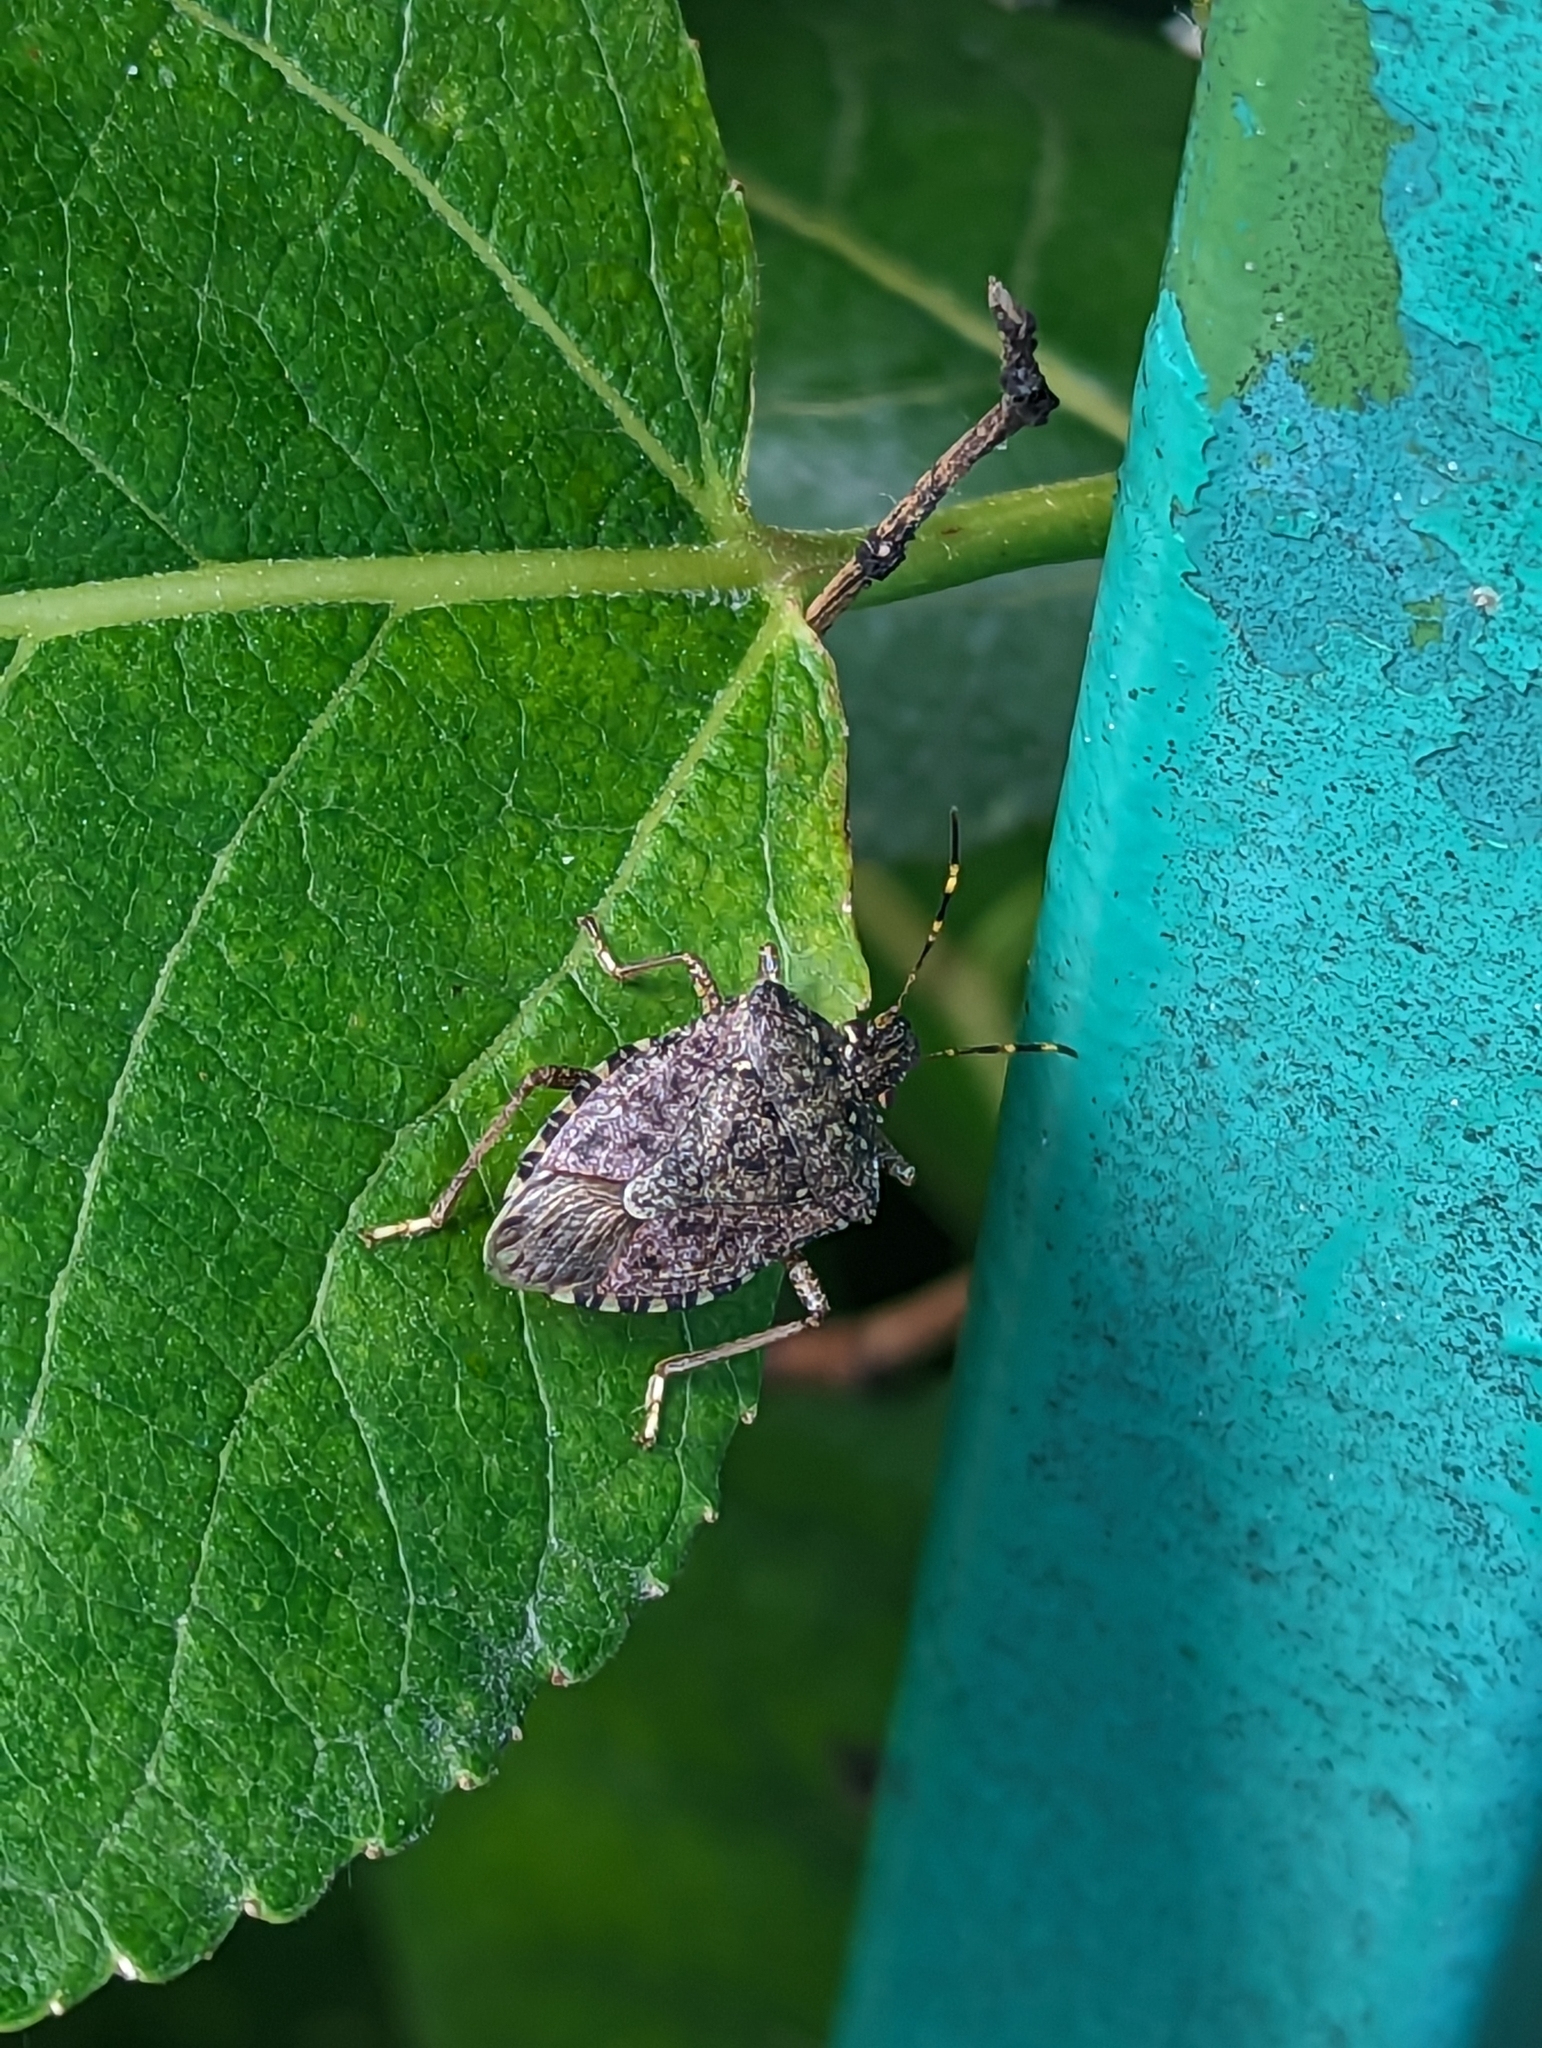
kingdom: Animalia
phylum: Arthropoda
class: Insecta
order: Hemiptera
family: Pentatomidae
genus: Halyomorpha
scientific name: Halyomorpha halys
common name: Brown marmorated stink bug
